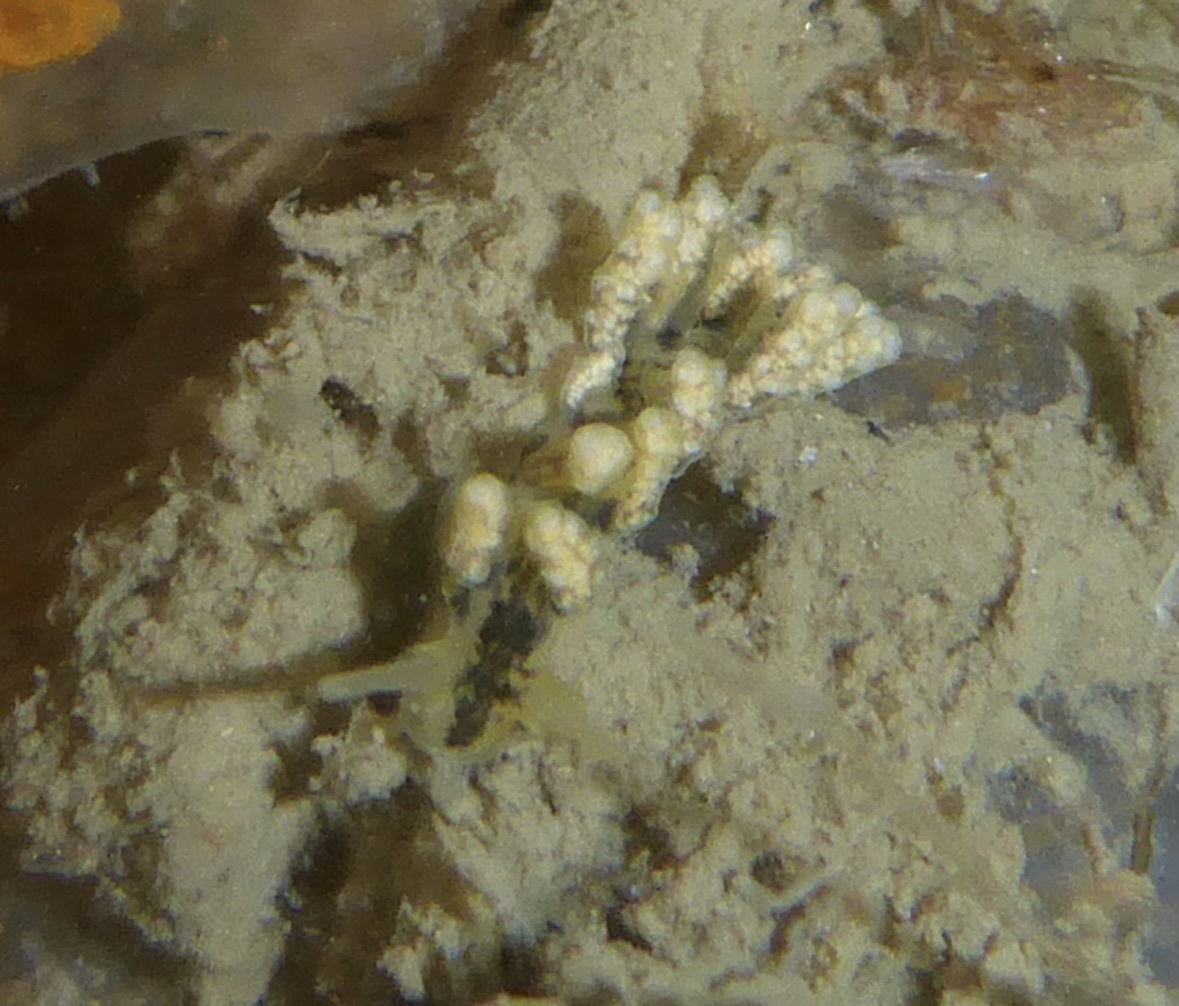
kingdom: Animalia
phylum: Mollusca
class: Gastropoda
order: Nudibranchia
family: Dotidae
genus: Doto
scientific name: Doto kya
